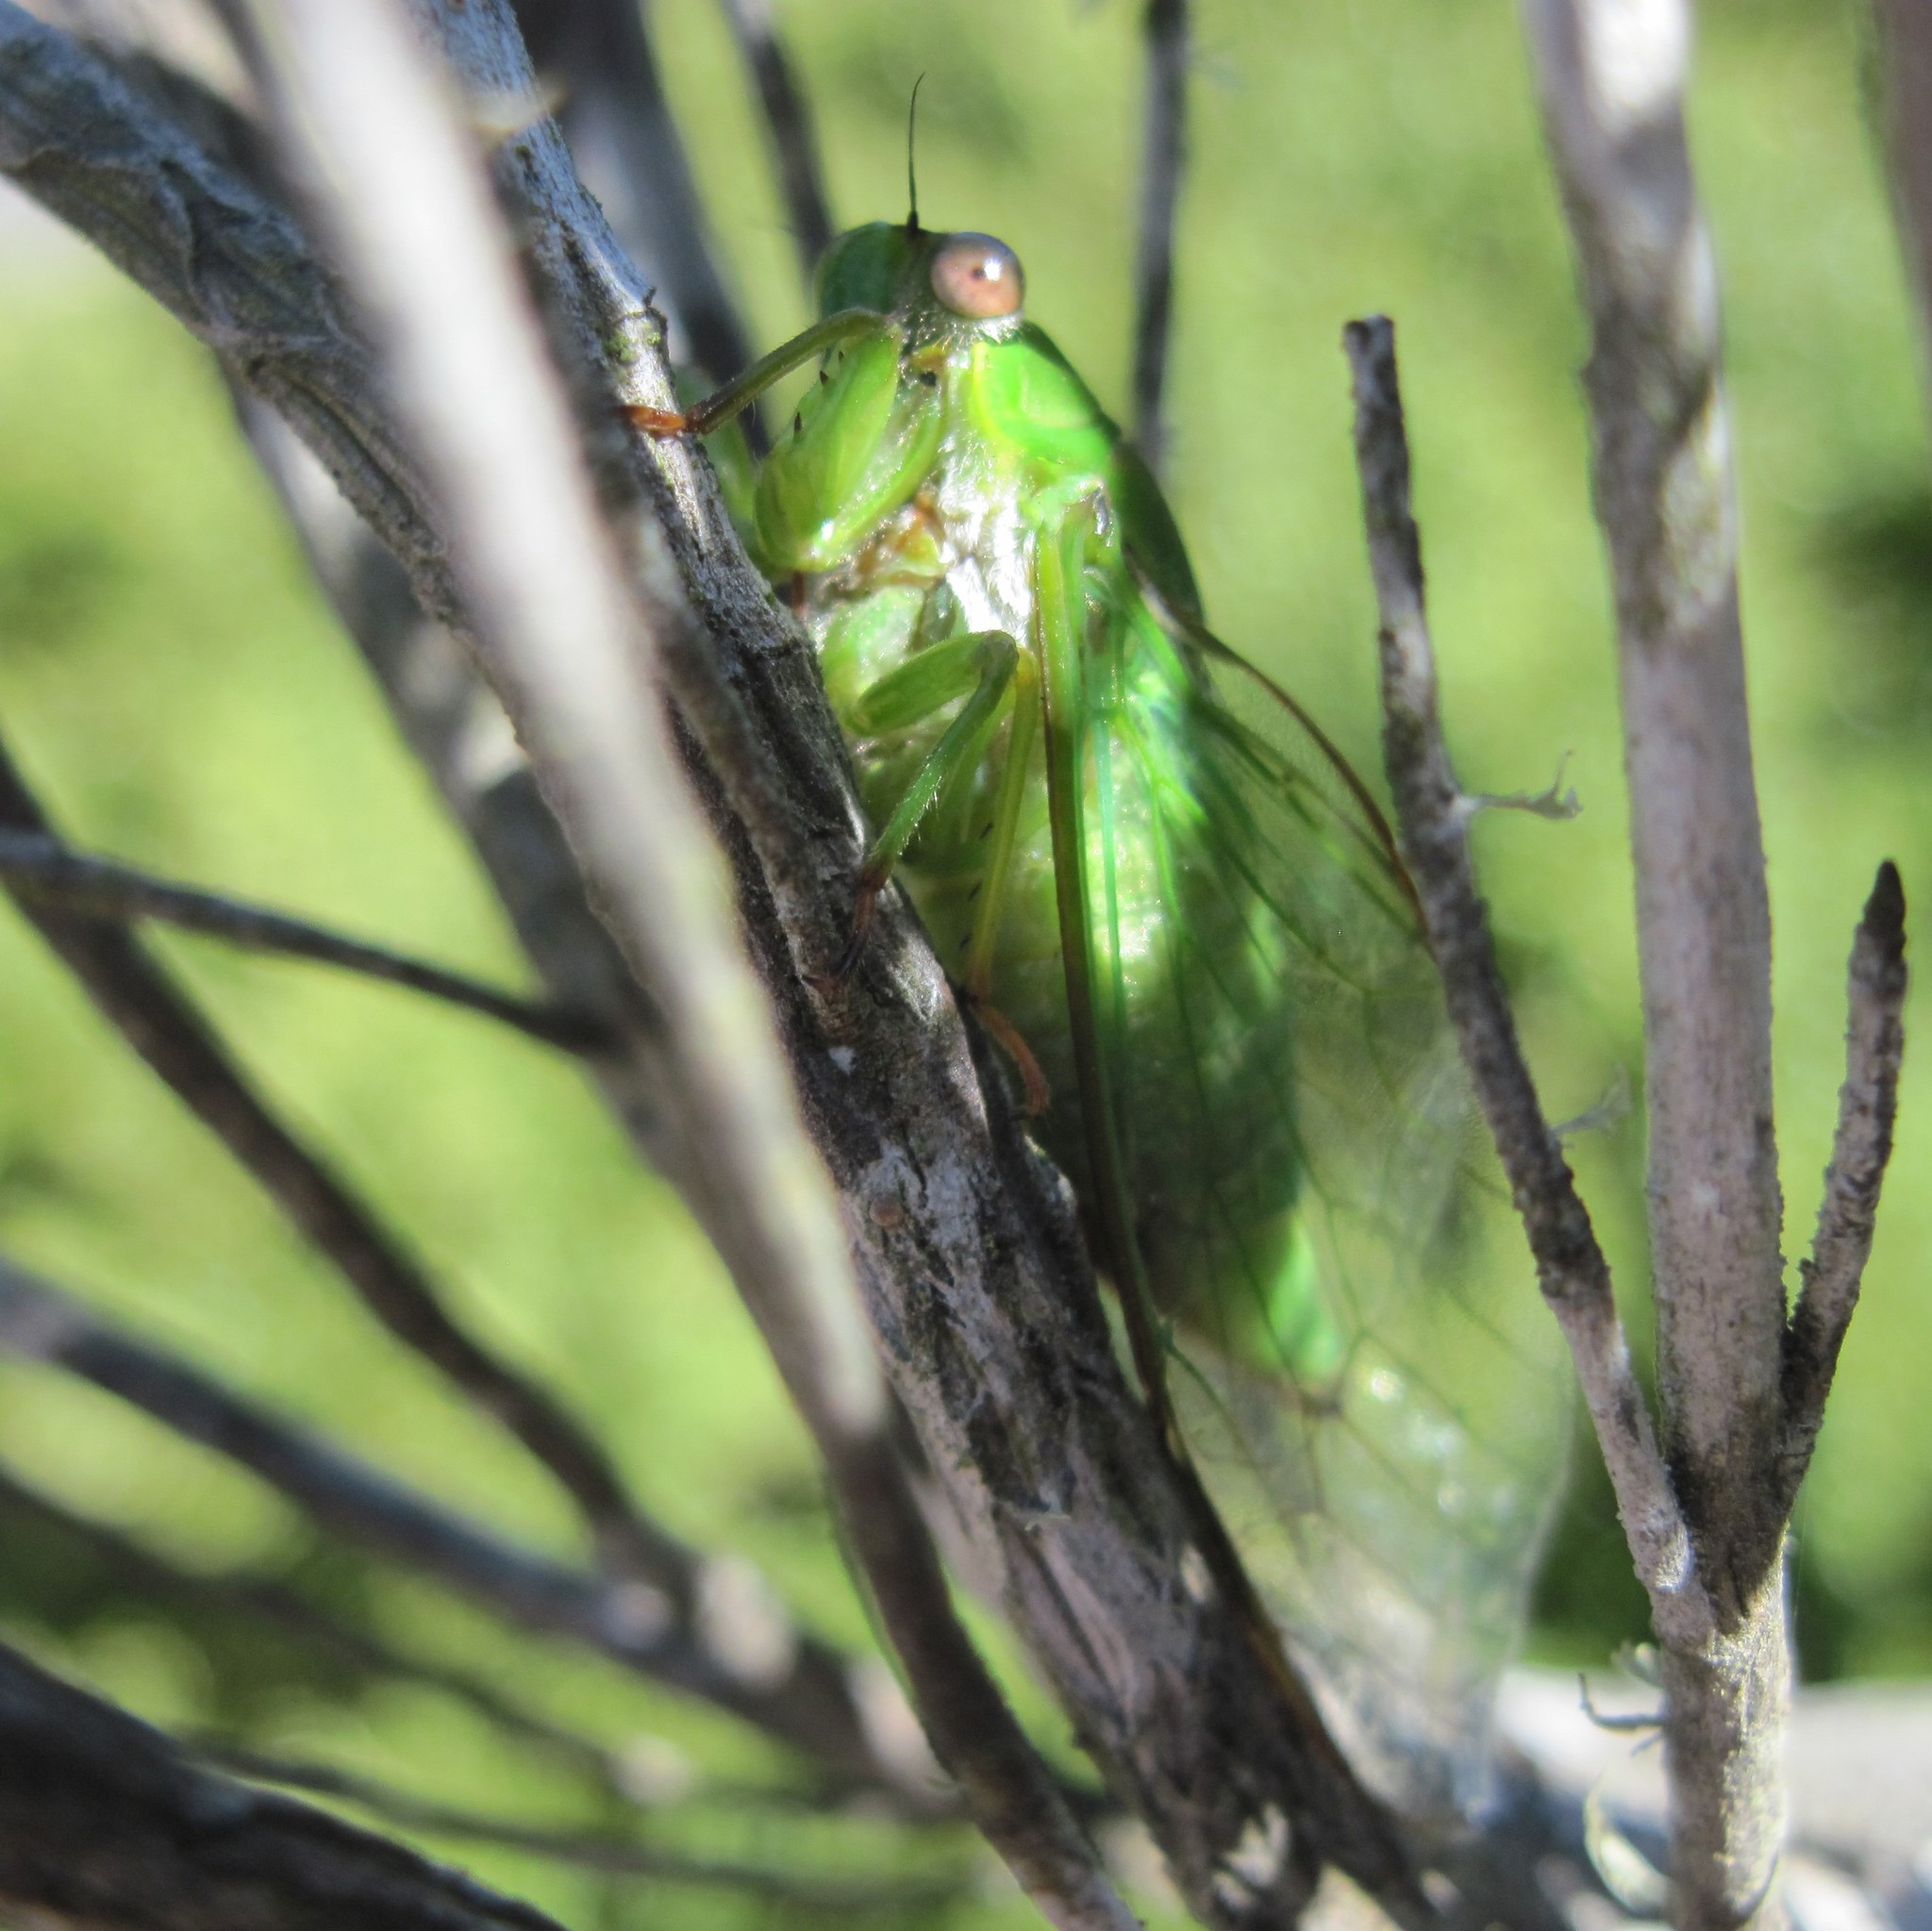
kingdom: Animalia
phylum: Arthropoda
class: Insecta
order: Hemiptera
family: Cicadidae
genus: Kikihia
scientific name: Kikihia ochrina
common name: April green cicada
